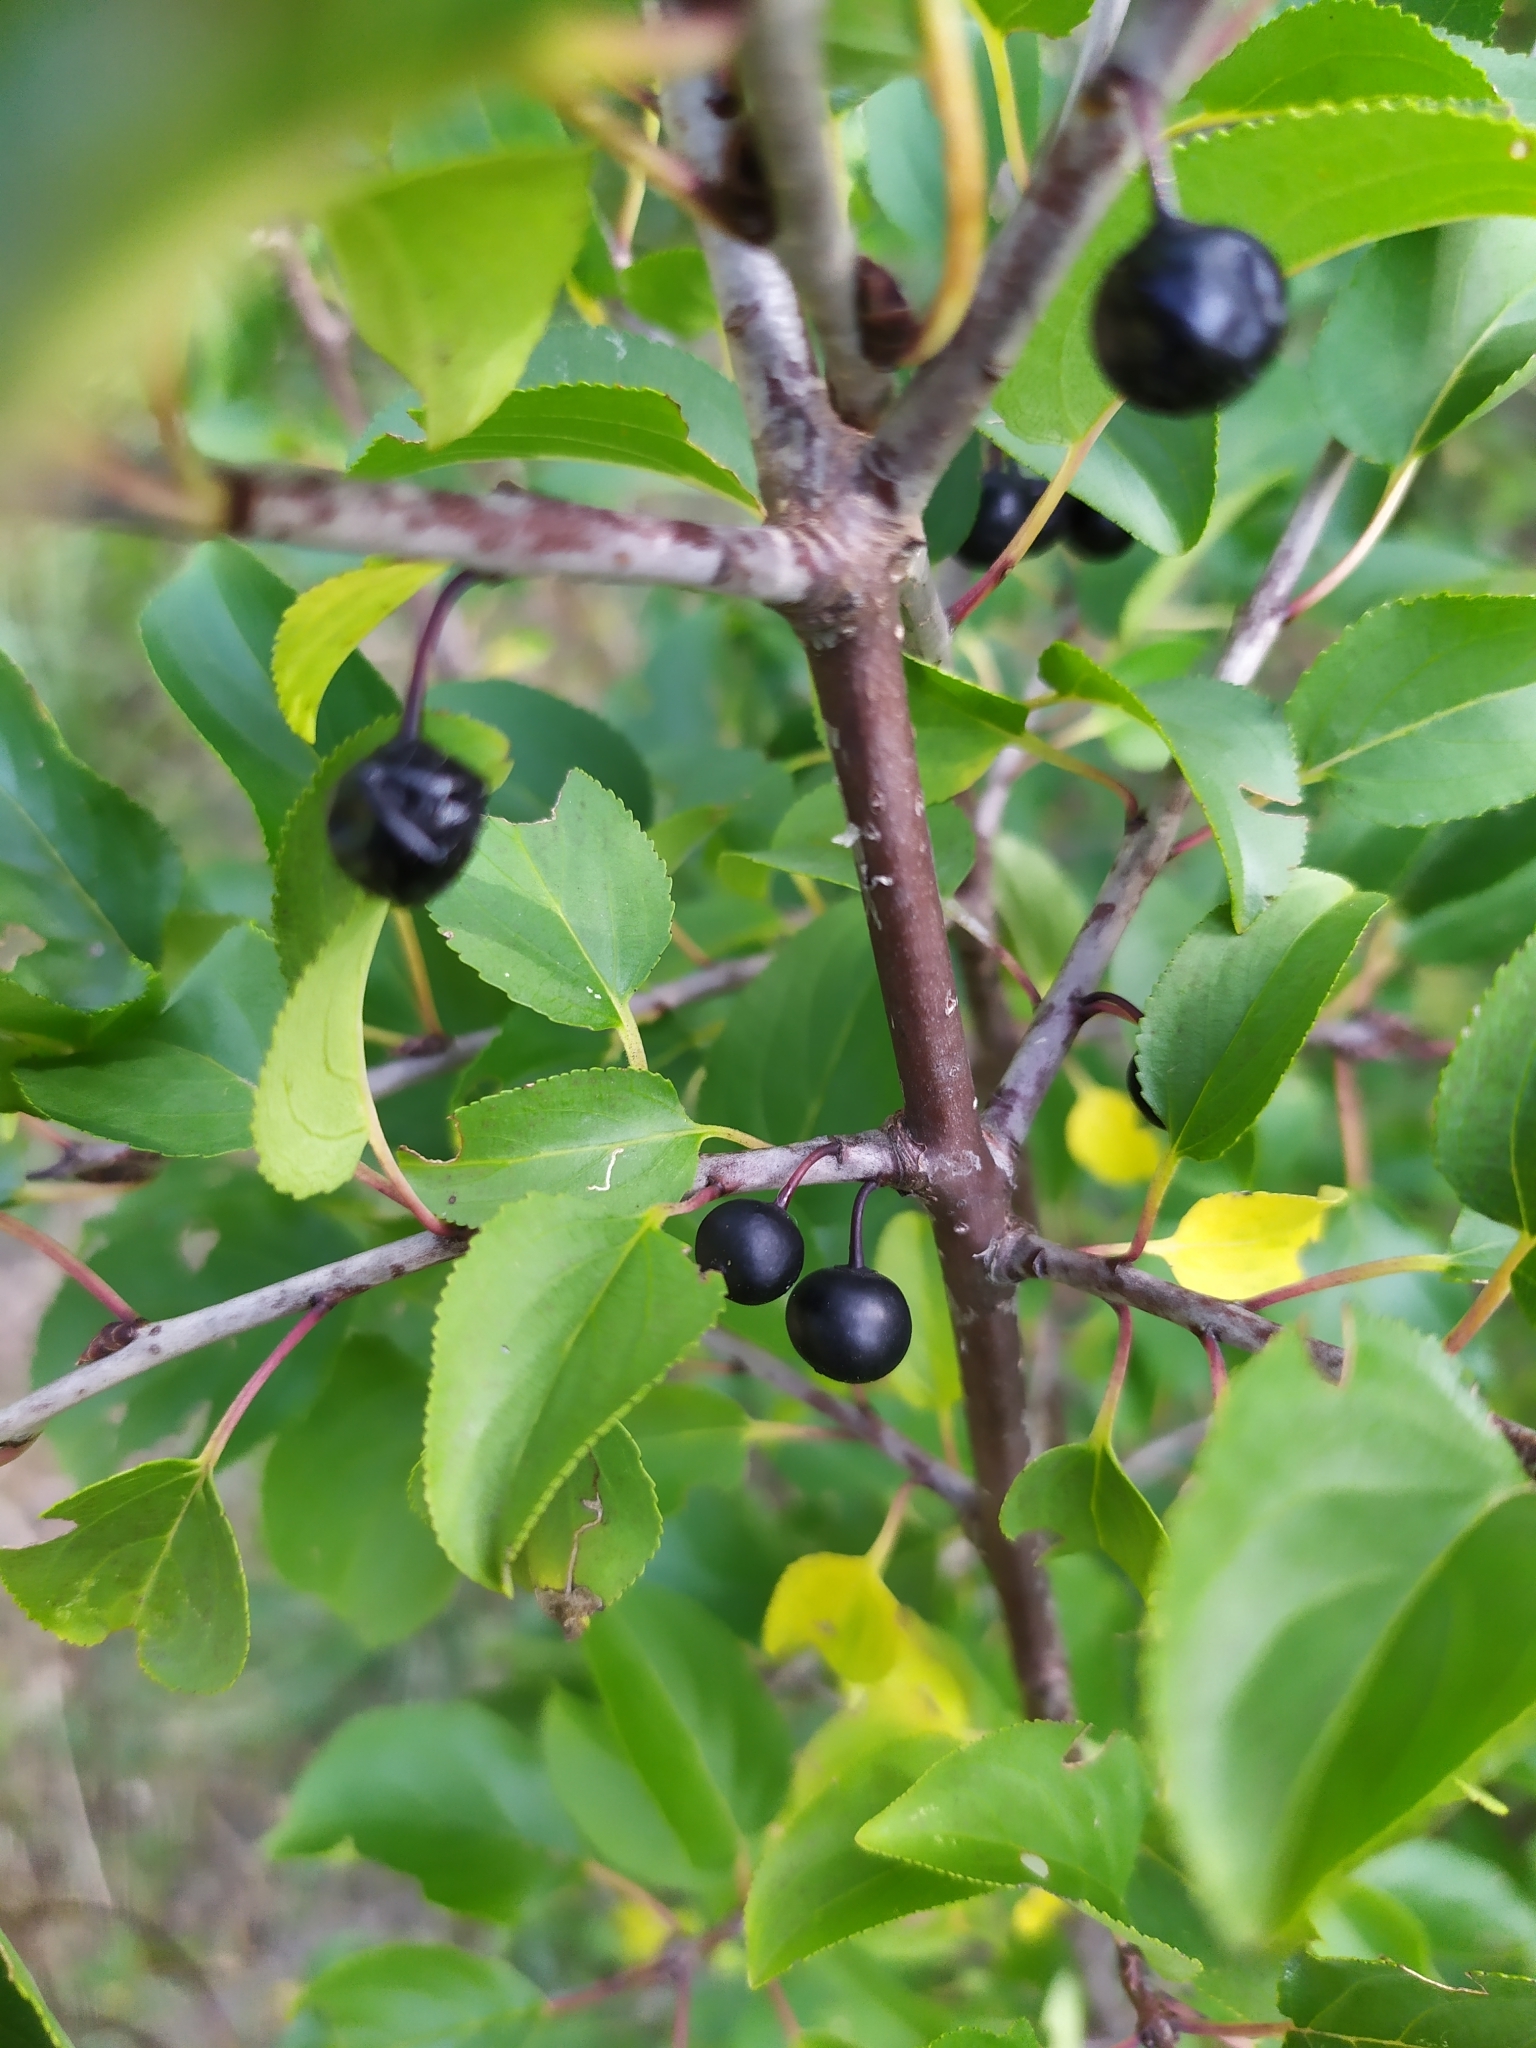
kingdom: Plantae
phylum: Tracheophyta
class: Magnoliopsida
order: Rosales
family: Rhamnaceae
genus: Rhamnus
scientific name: Rhamnus cathartica
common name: Common buckthorn
